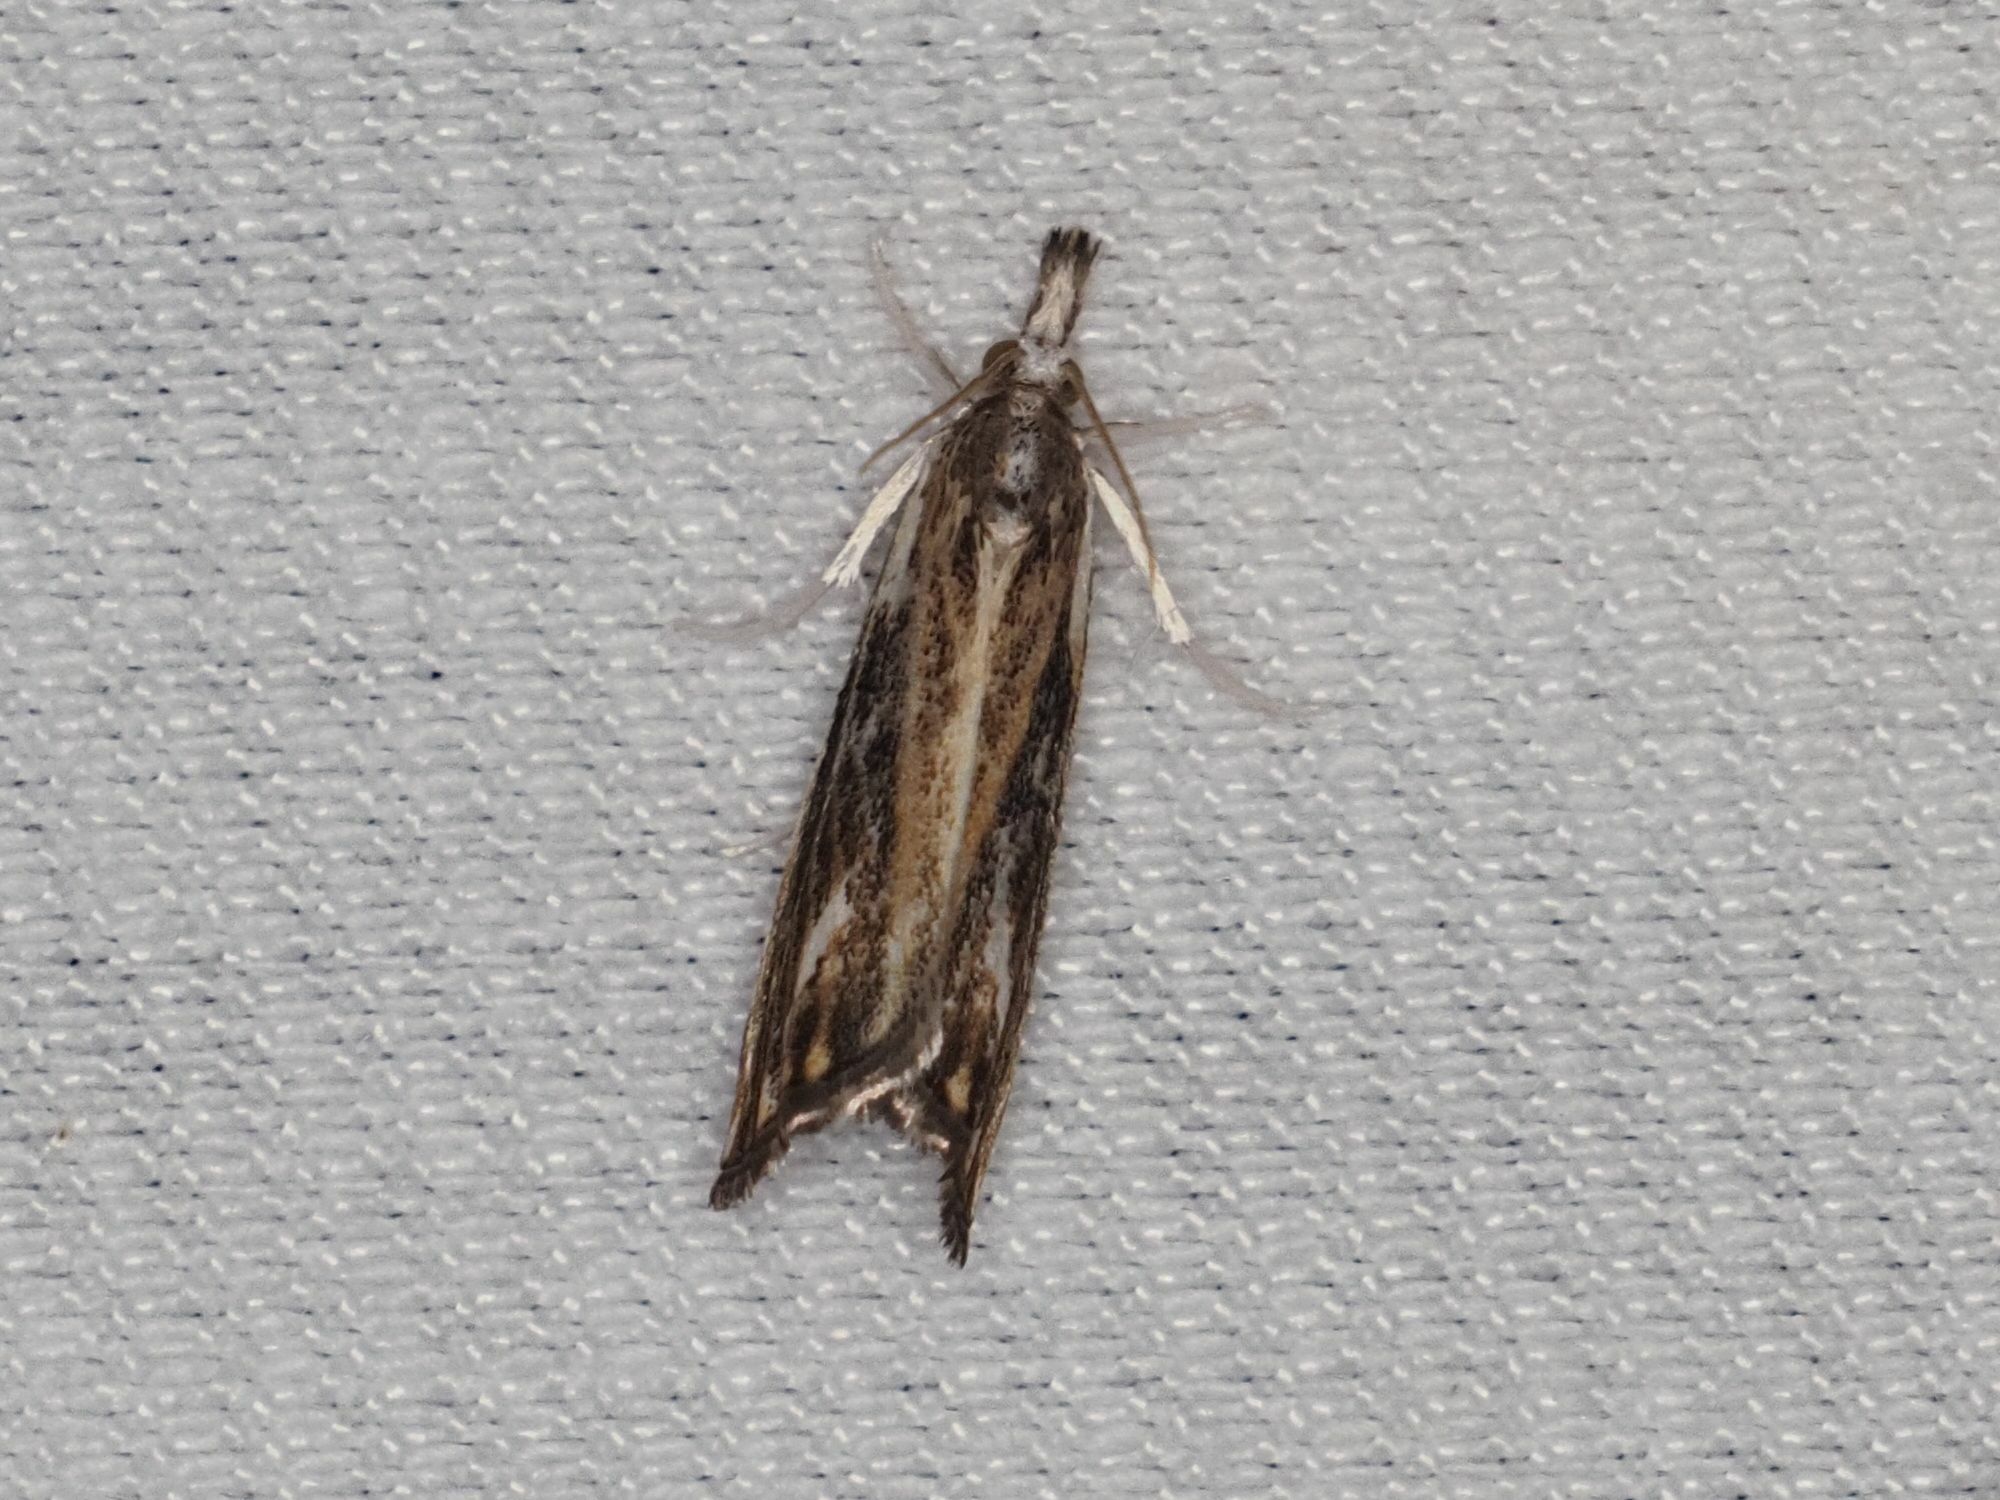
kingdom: Animalia
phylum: Arthropoda
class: Insecta
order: Lepidoptera
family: Crambidae
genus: Catoptria
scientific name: Catoptria verellus
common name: Marbled grass-veneer
